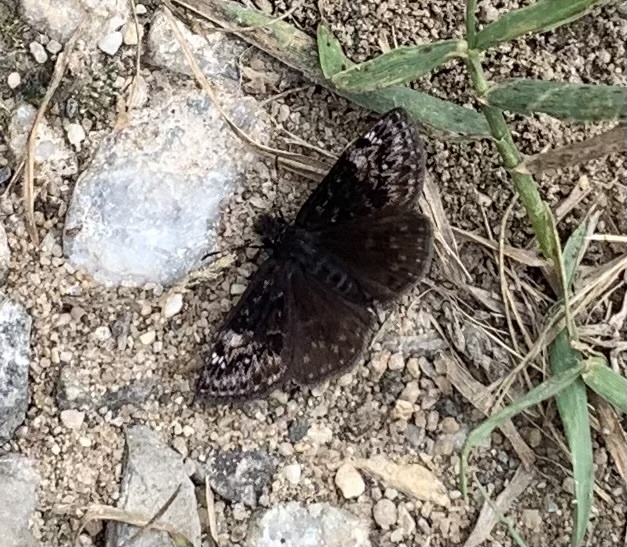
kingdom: Animalia
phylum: Arthropoda
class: Insecta
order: Lepidoptera
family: Hesperiidae
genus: Erynnis
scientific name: Erynnis lucilius
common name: Columbine duskywing
